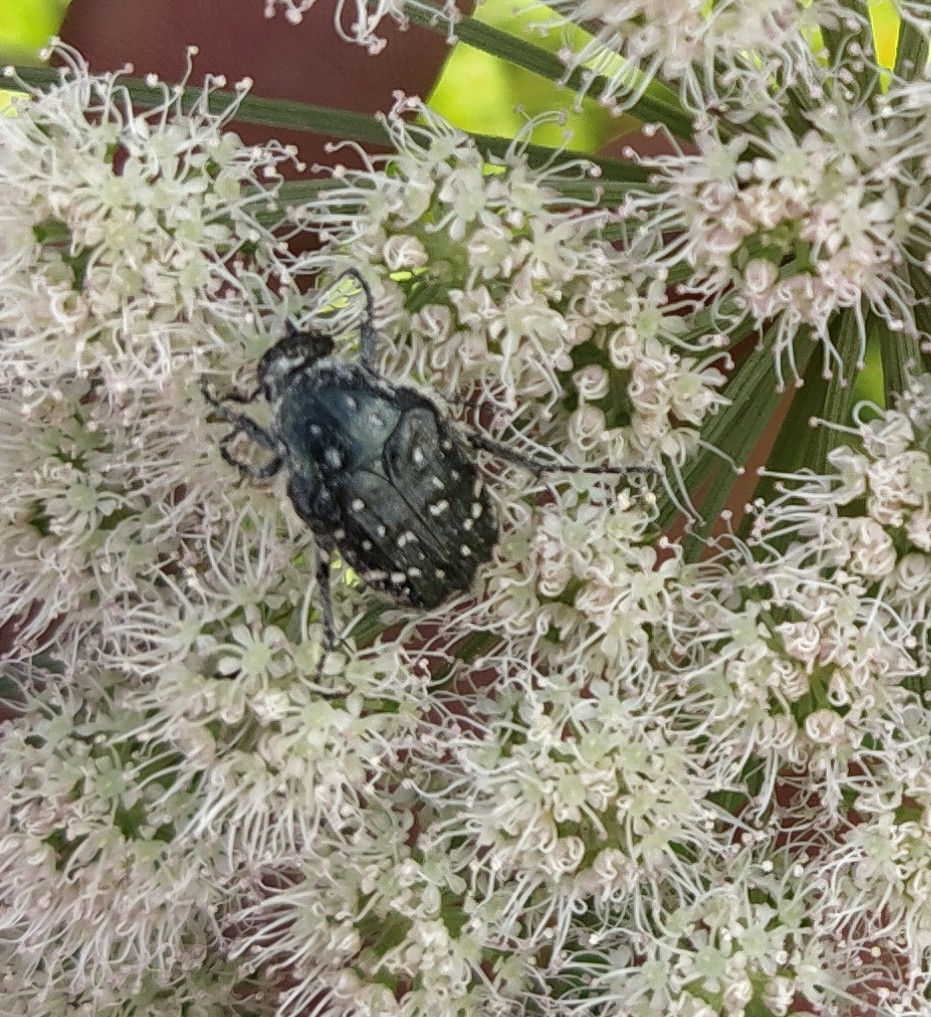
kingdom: Animalia
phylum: Arthropoda
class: Insecta
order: Coleoptera
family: Scarabaeidae
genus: Oxythyrea
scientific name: Oxythyrea funesta
